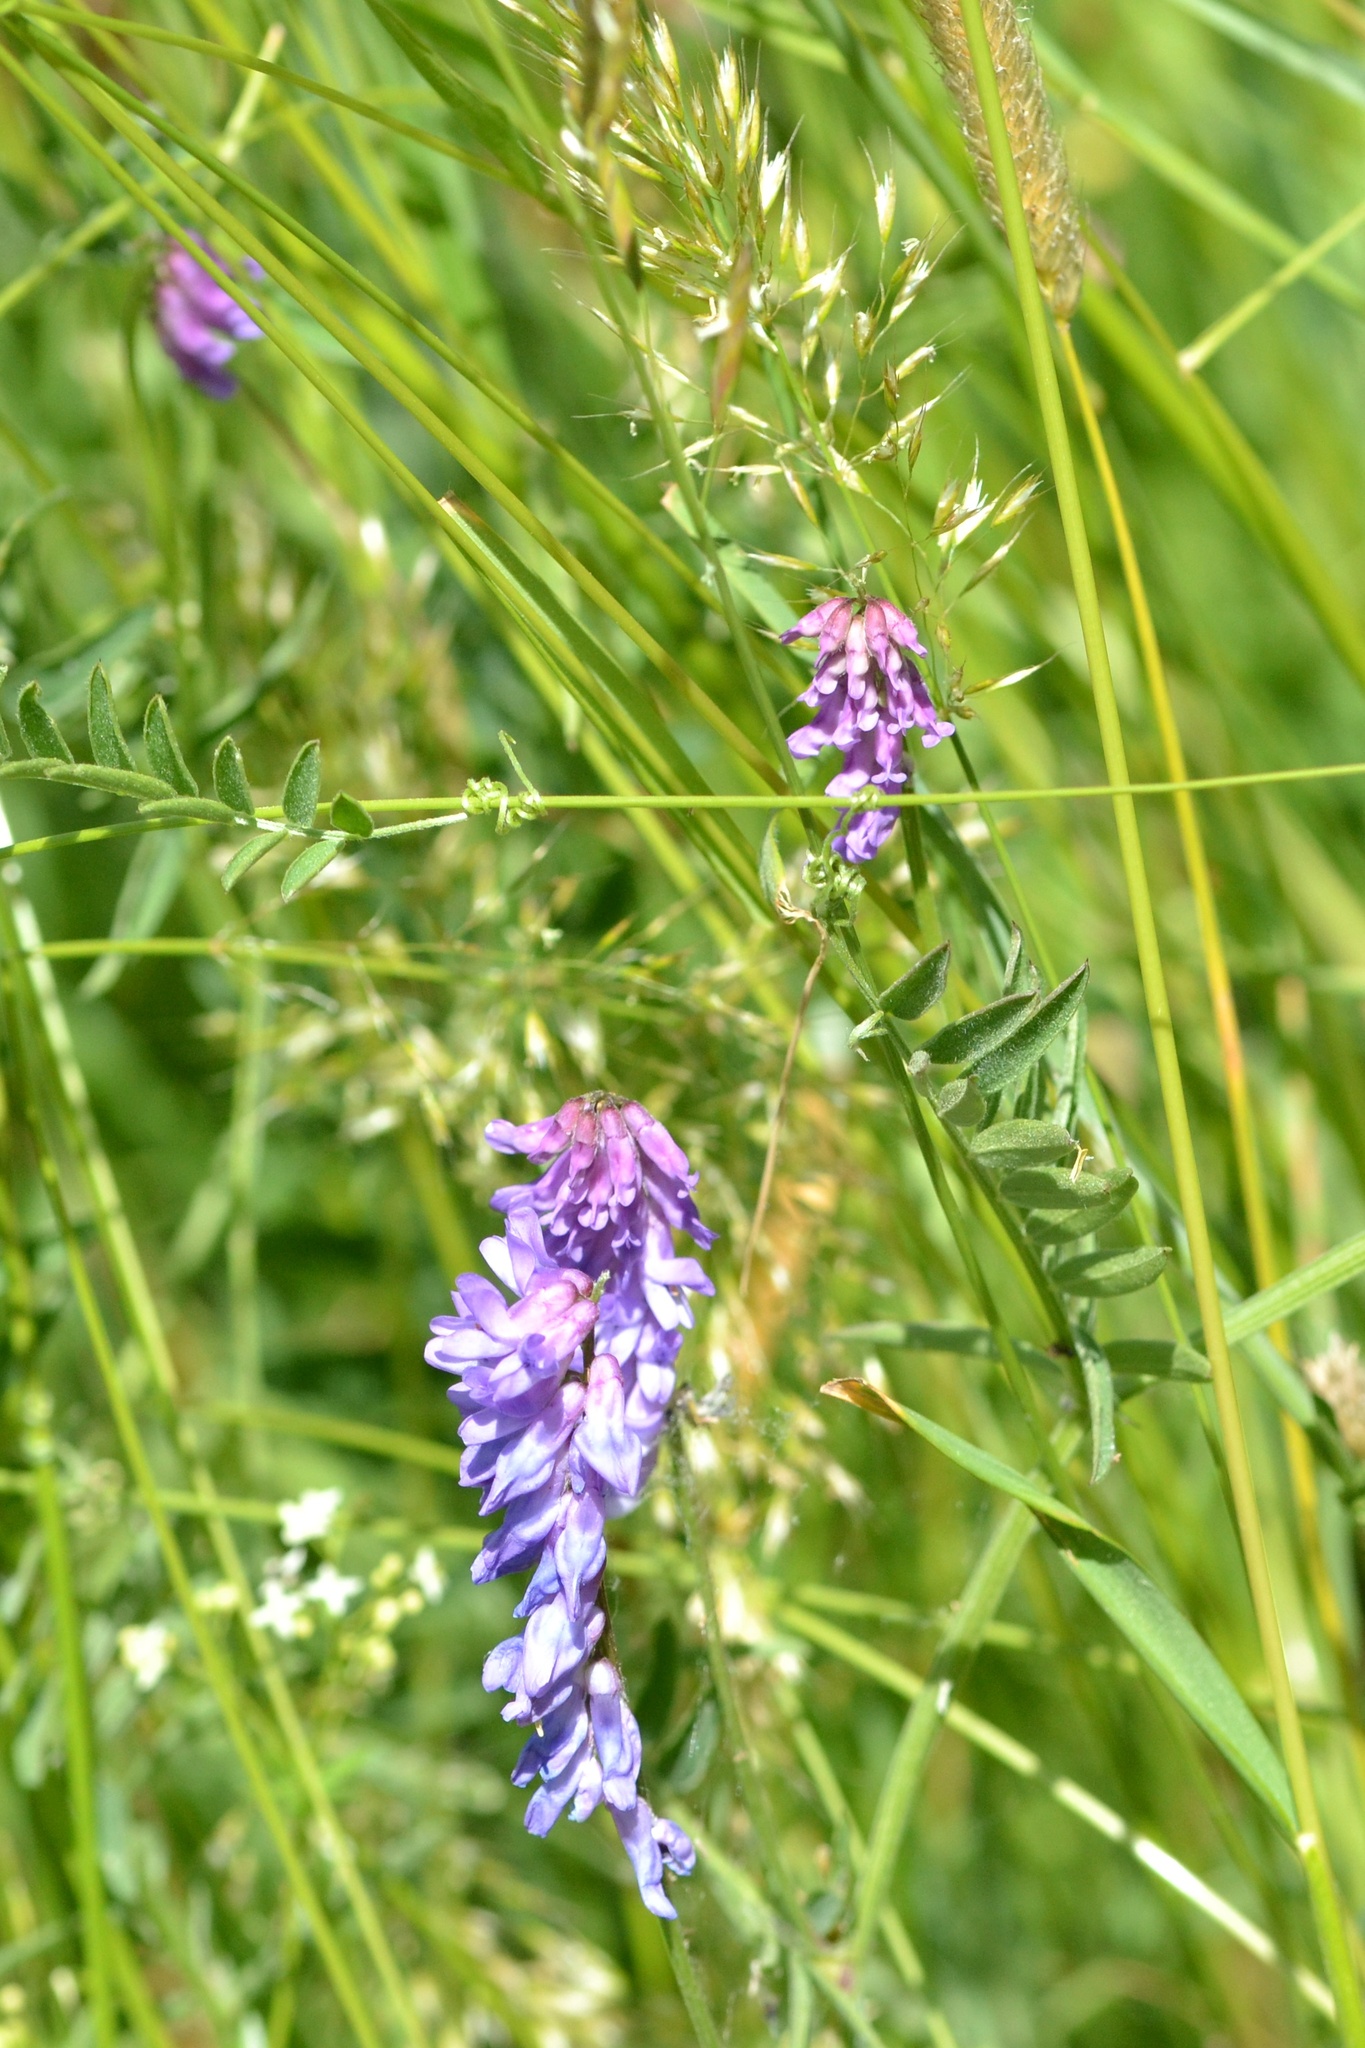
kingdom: Plantae
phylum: Tracheophyta
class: Magnoliopsida
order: Fabales
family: Fabaceae
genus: Vicia
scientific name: Vicia cracca
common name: Bird vetch
